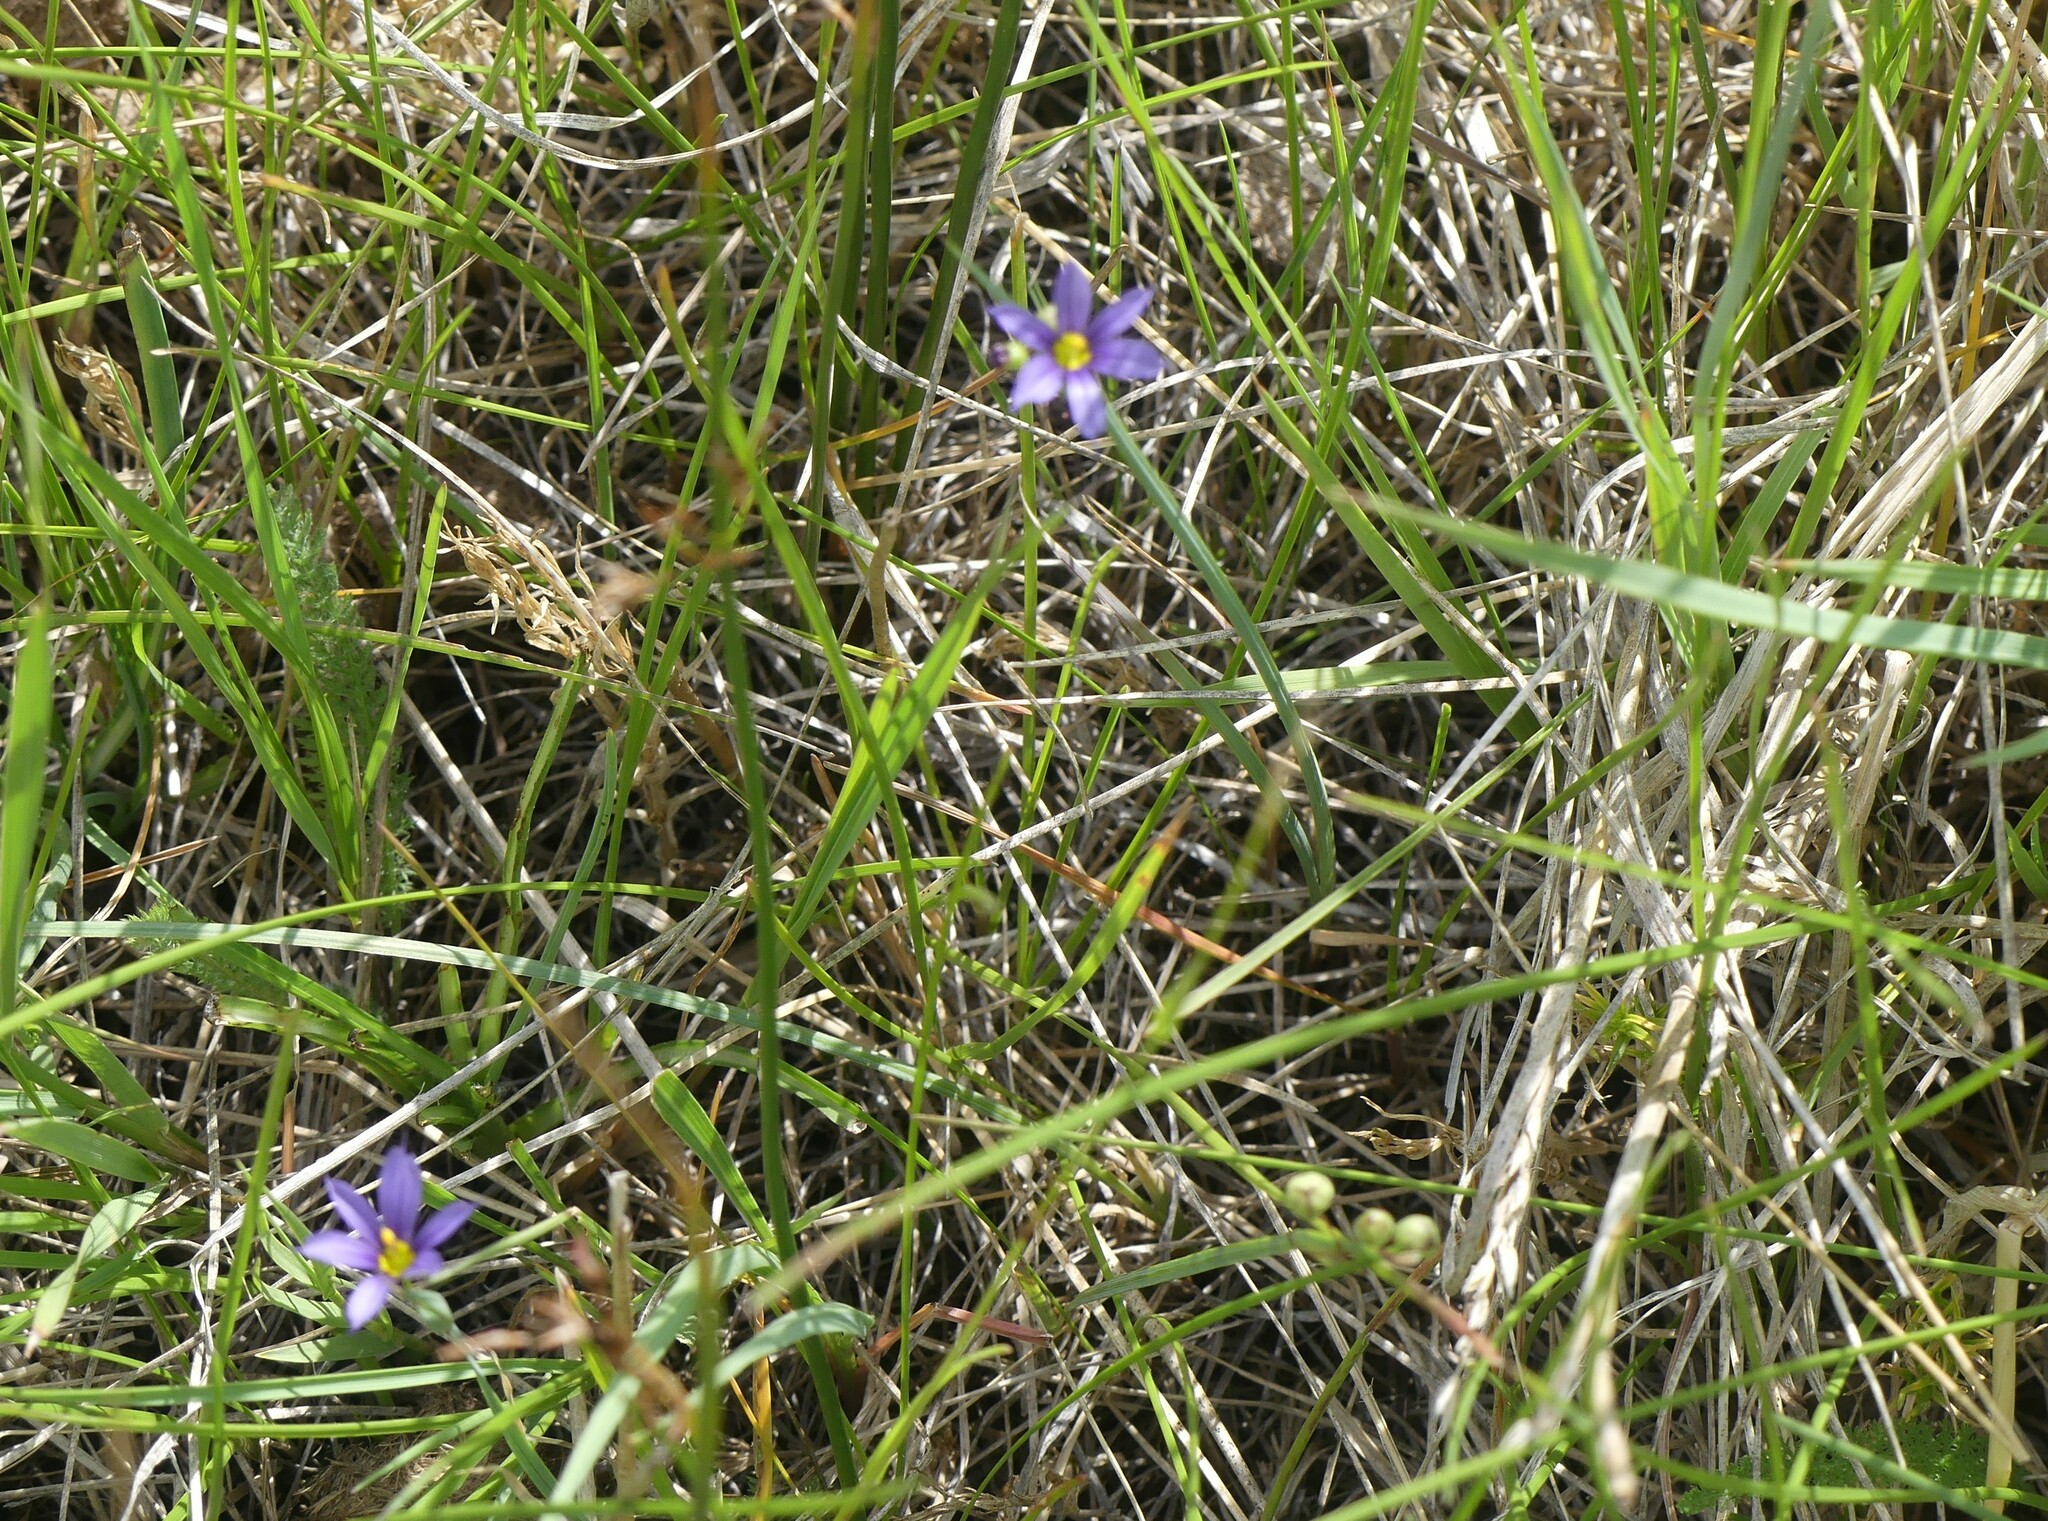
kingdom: Plantae
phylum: Tracheophyta
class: Liliopsida
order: Asparagales
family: Iridaceae
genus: Sisyrinchium
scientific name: Sisyrinchium montanum
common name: American blue-eyed-grass
